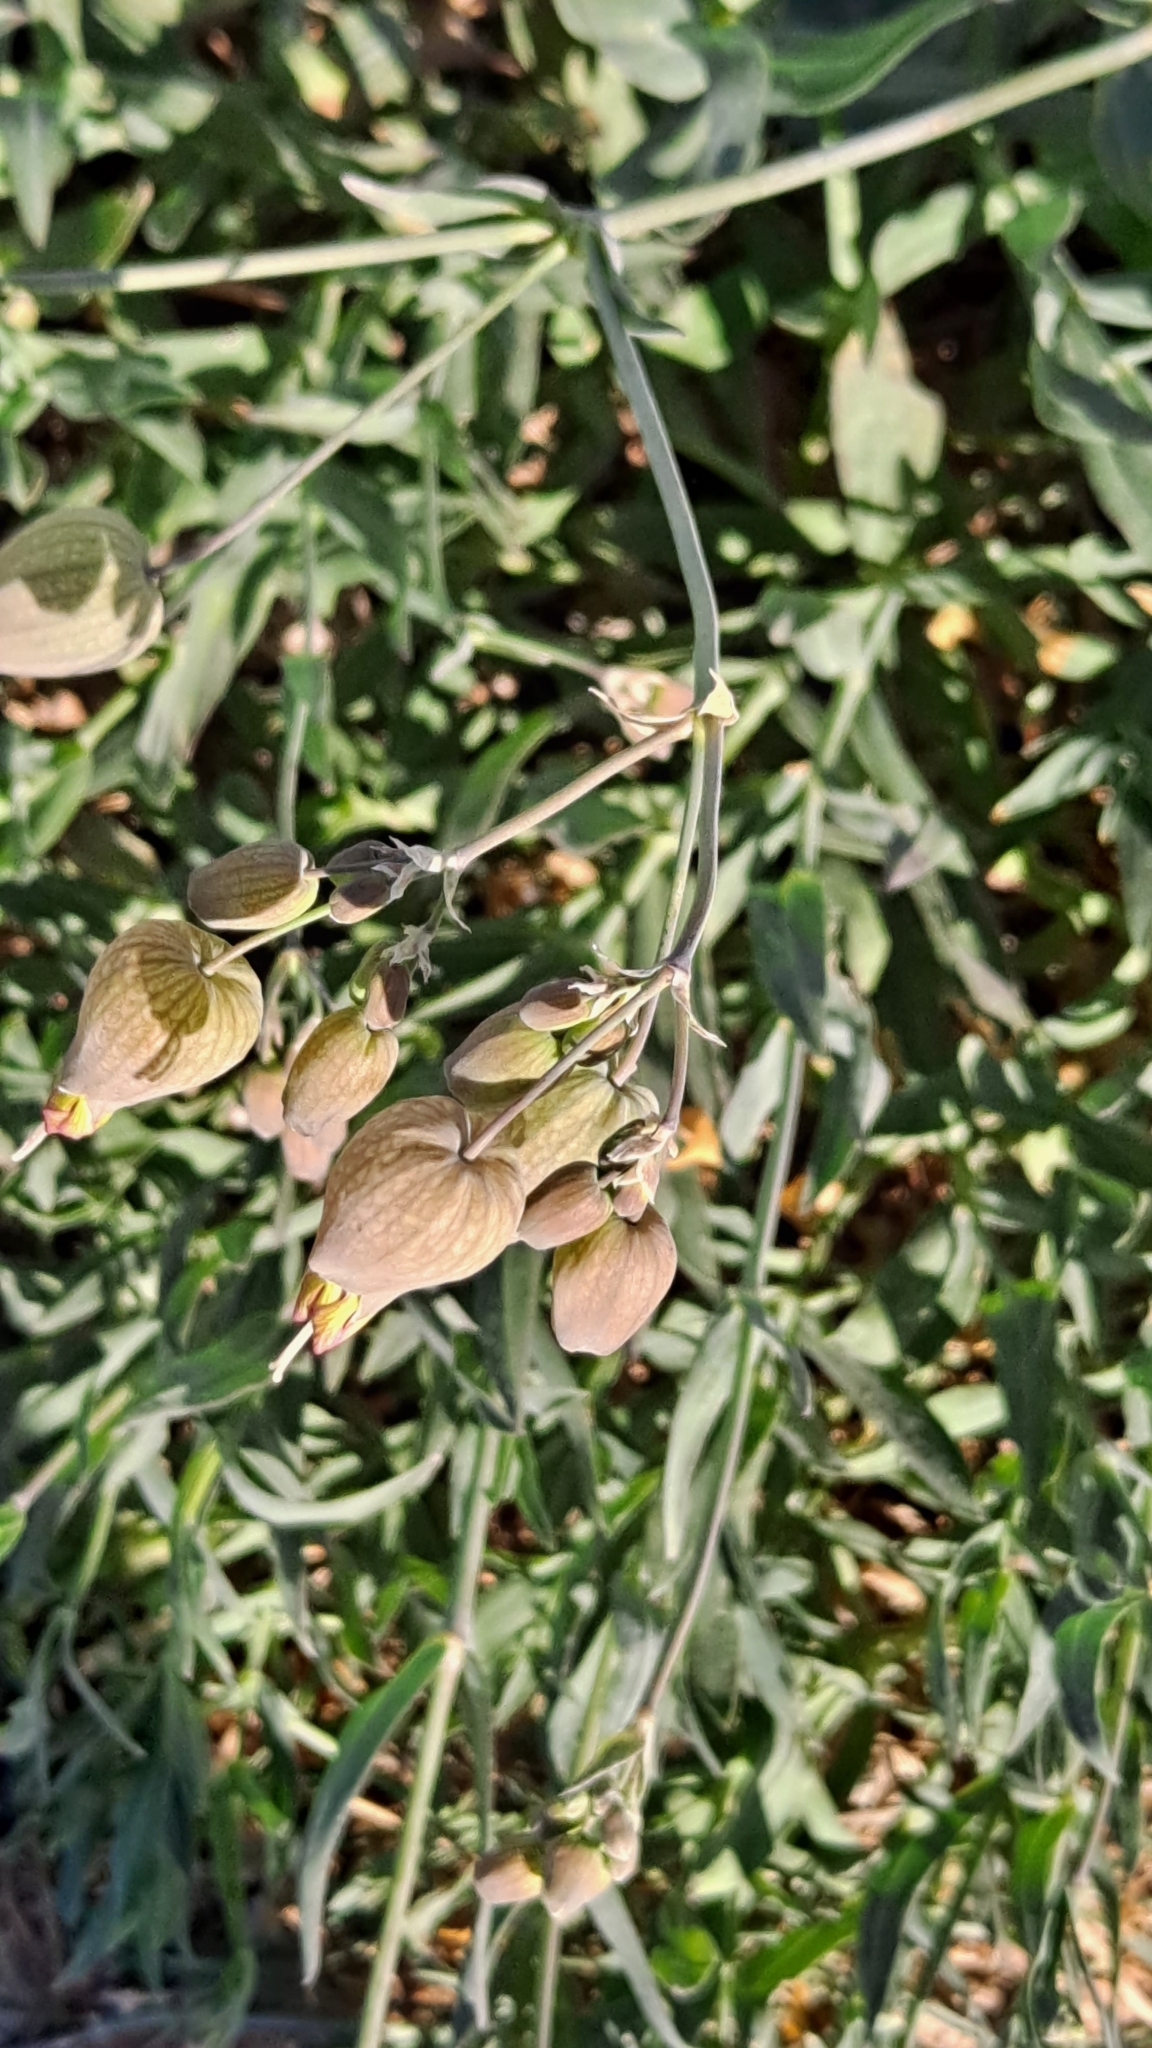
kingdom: Plantae
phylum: Tracheophyta
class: Magnoliopsida
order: Caryophyllales
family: Caryophyllaceae
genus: Silene
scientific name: Silene vulgaris
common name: Bladder campion
